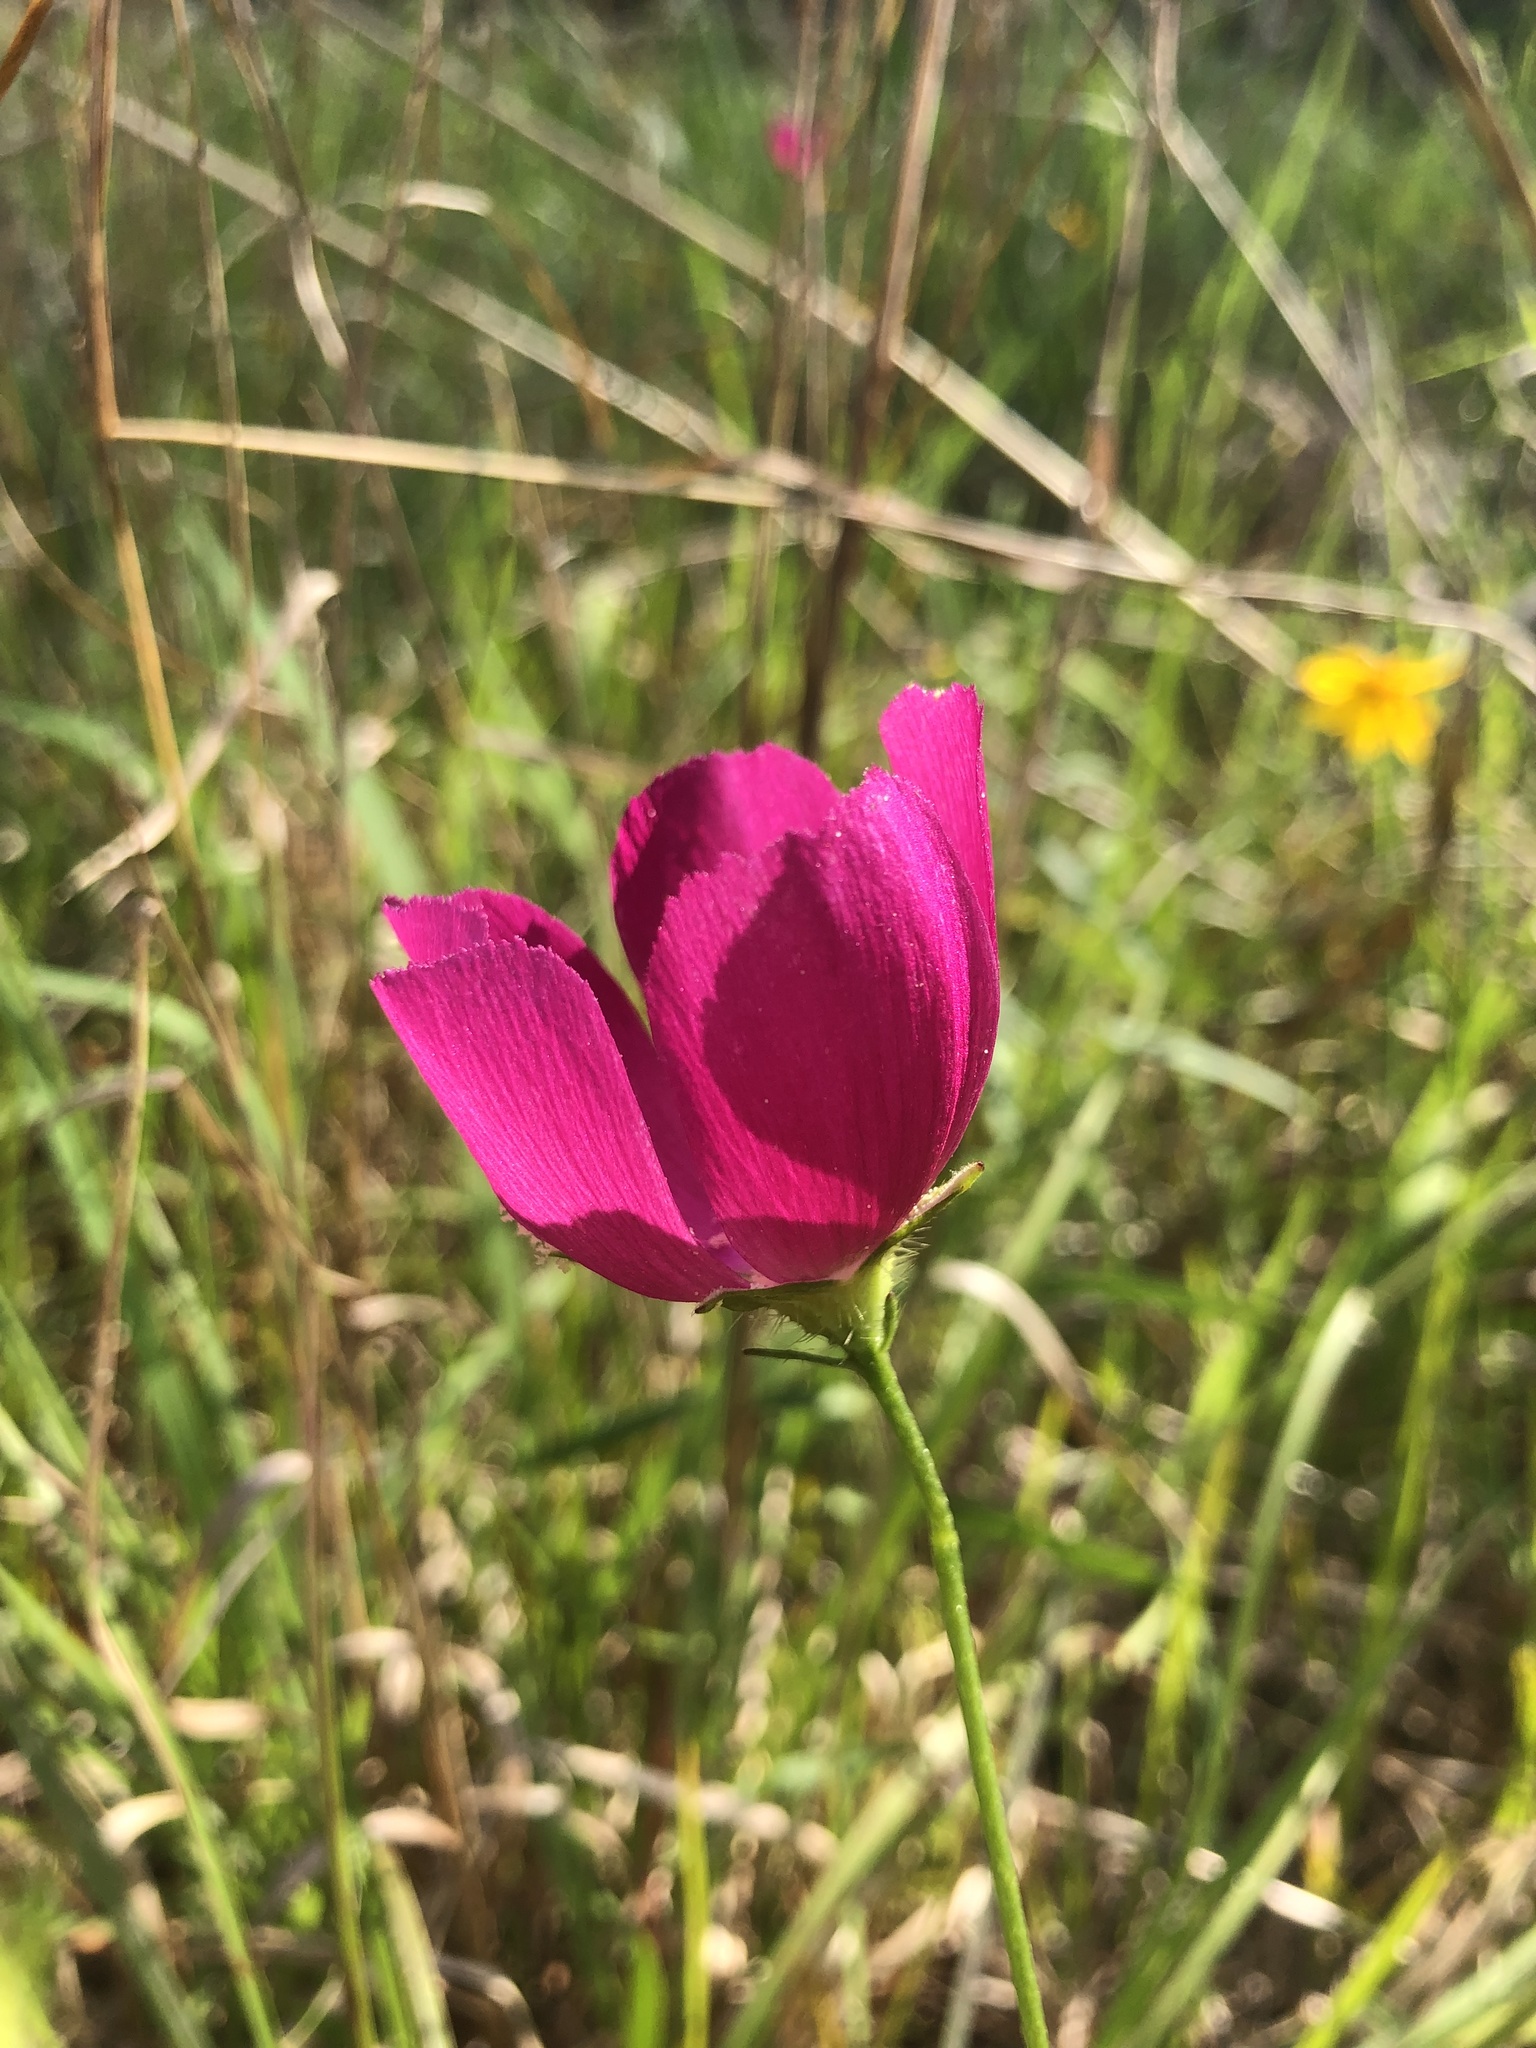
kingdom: Plantae
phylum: Tracheophyta
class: Magnoliopsida
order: Malvales
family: Malvaceae
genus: Callirhoe
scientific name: Callirhoe papaver
